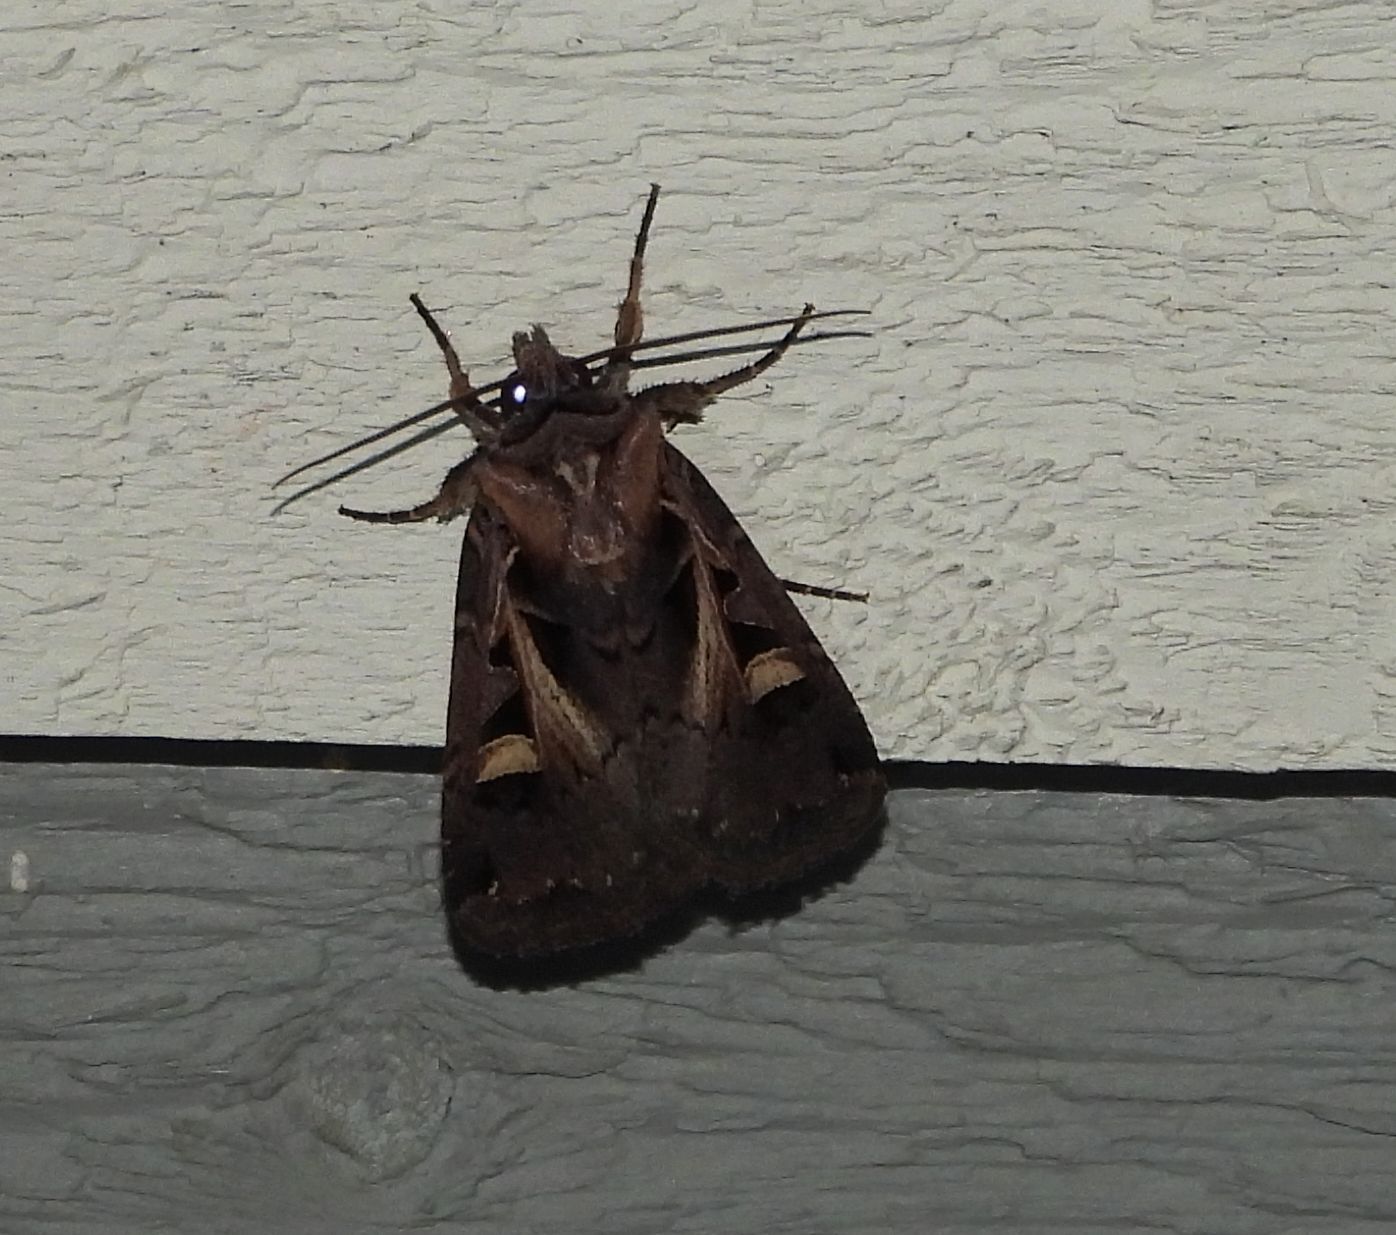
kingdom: Animalia
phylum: Arthropoda
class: Insecta
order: Lepidoptera
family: Noctuidae
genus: Feltia
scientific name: Feltia herilis
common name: Master's dart
